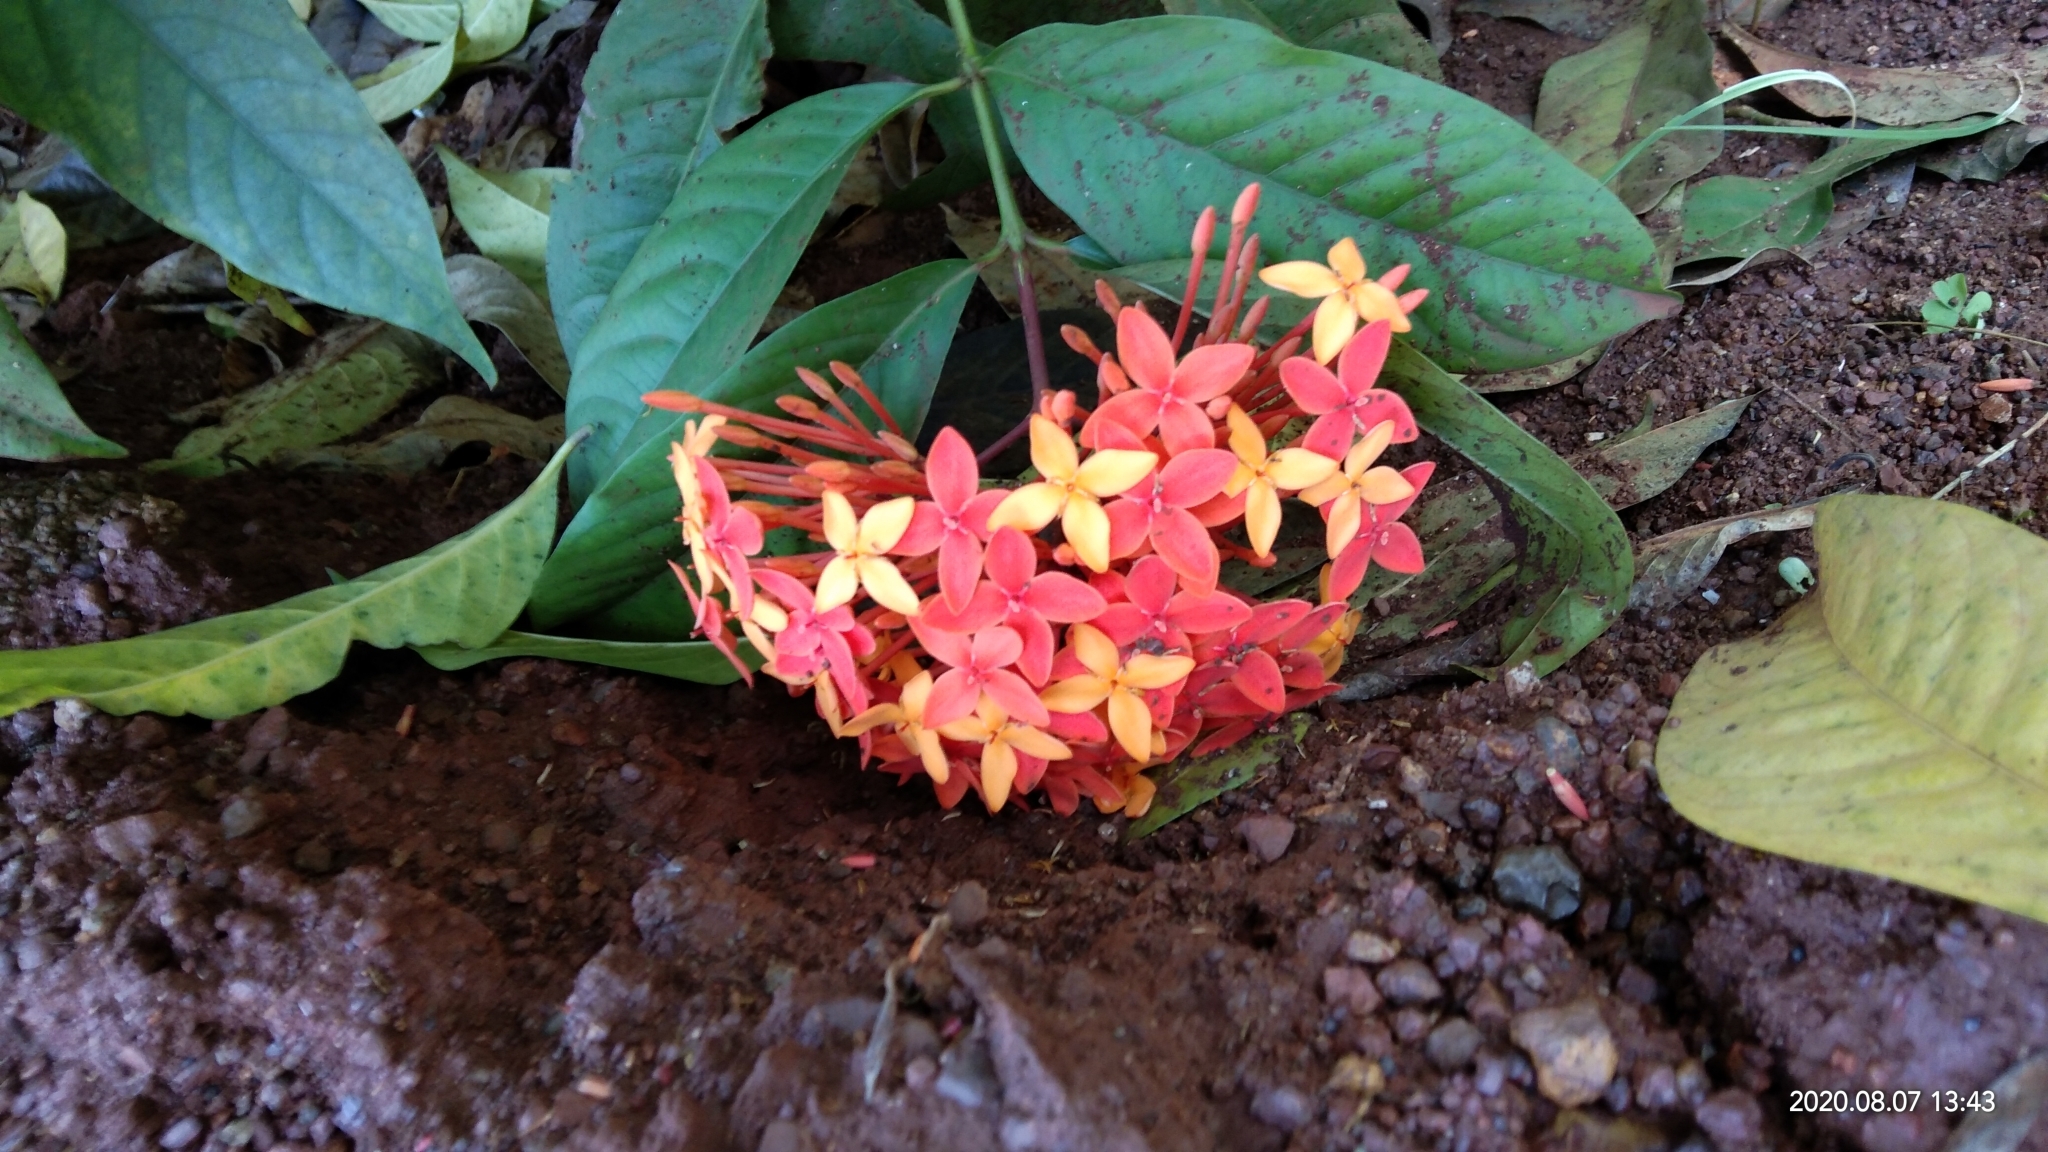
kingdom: Plantae
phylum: Tracheophyta
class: Magnoliopsida
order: Gentianales
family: Rubiaceae
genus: Ixora
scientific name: Ixora chinensis
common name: Chinese ixora
